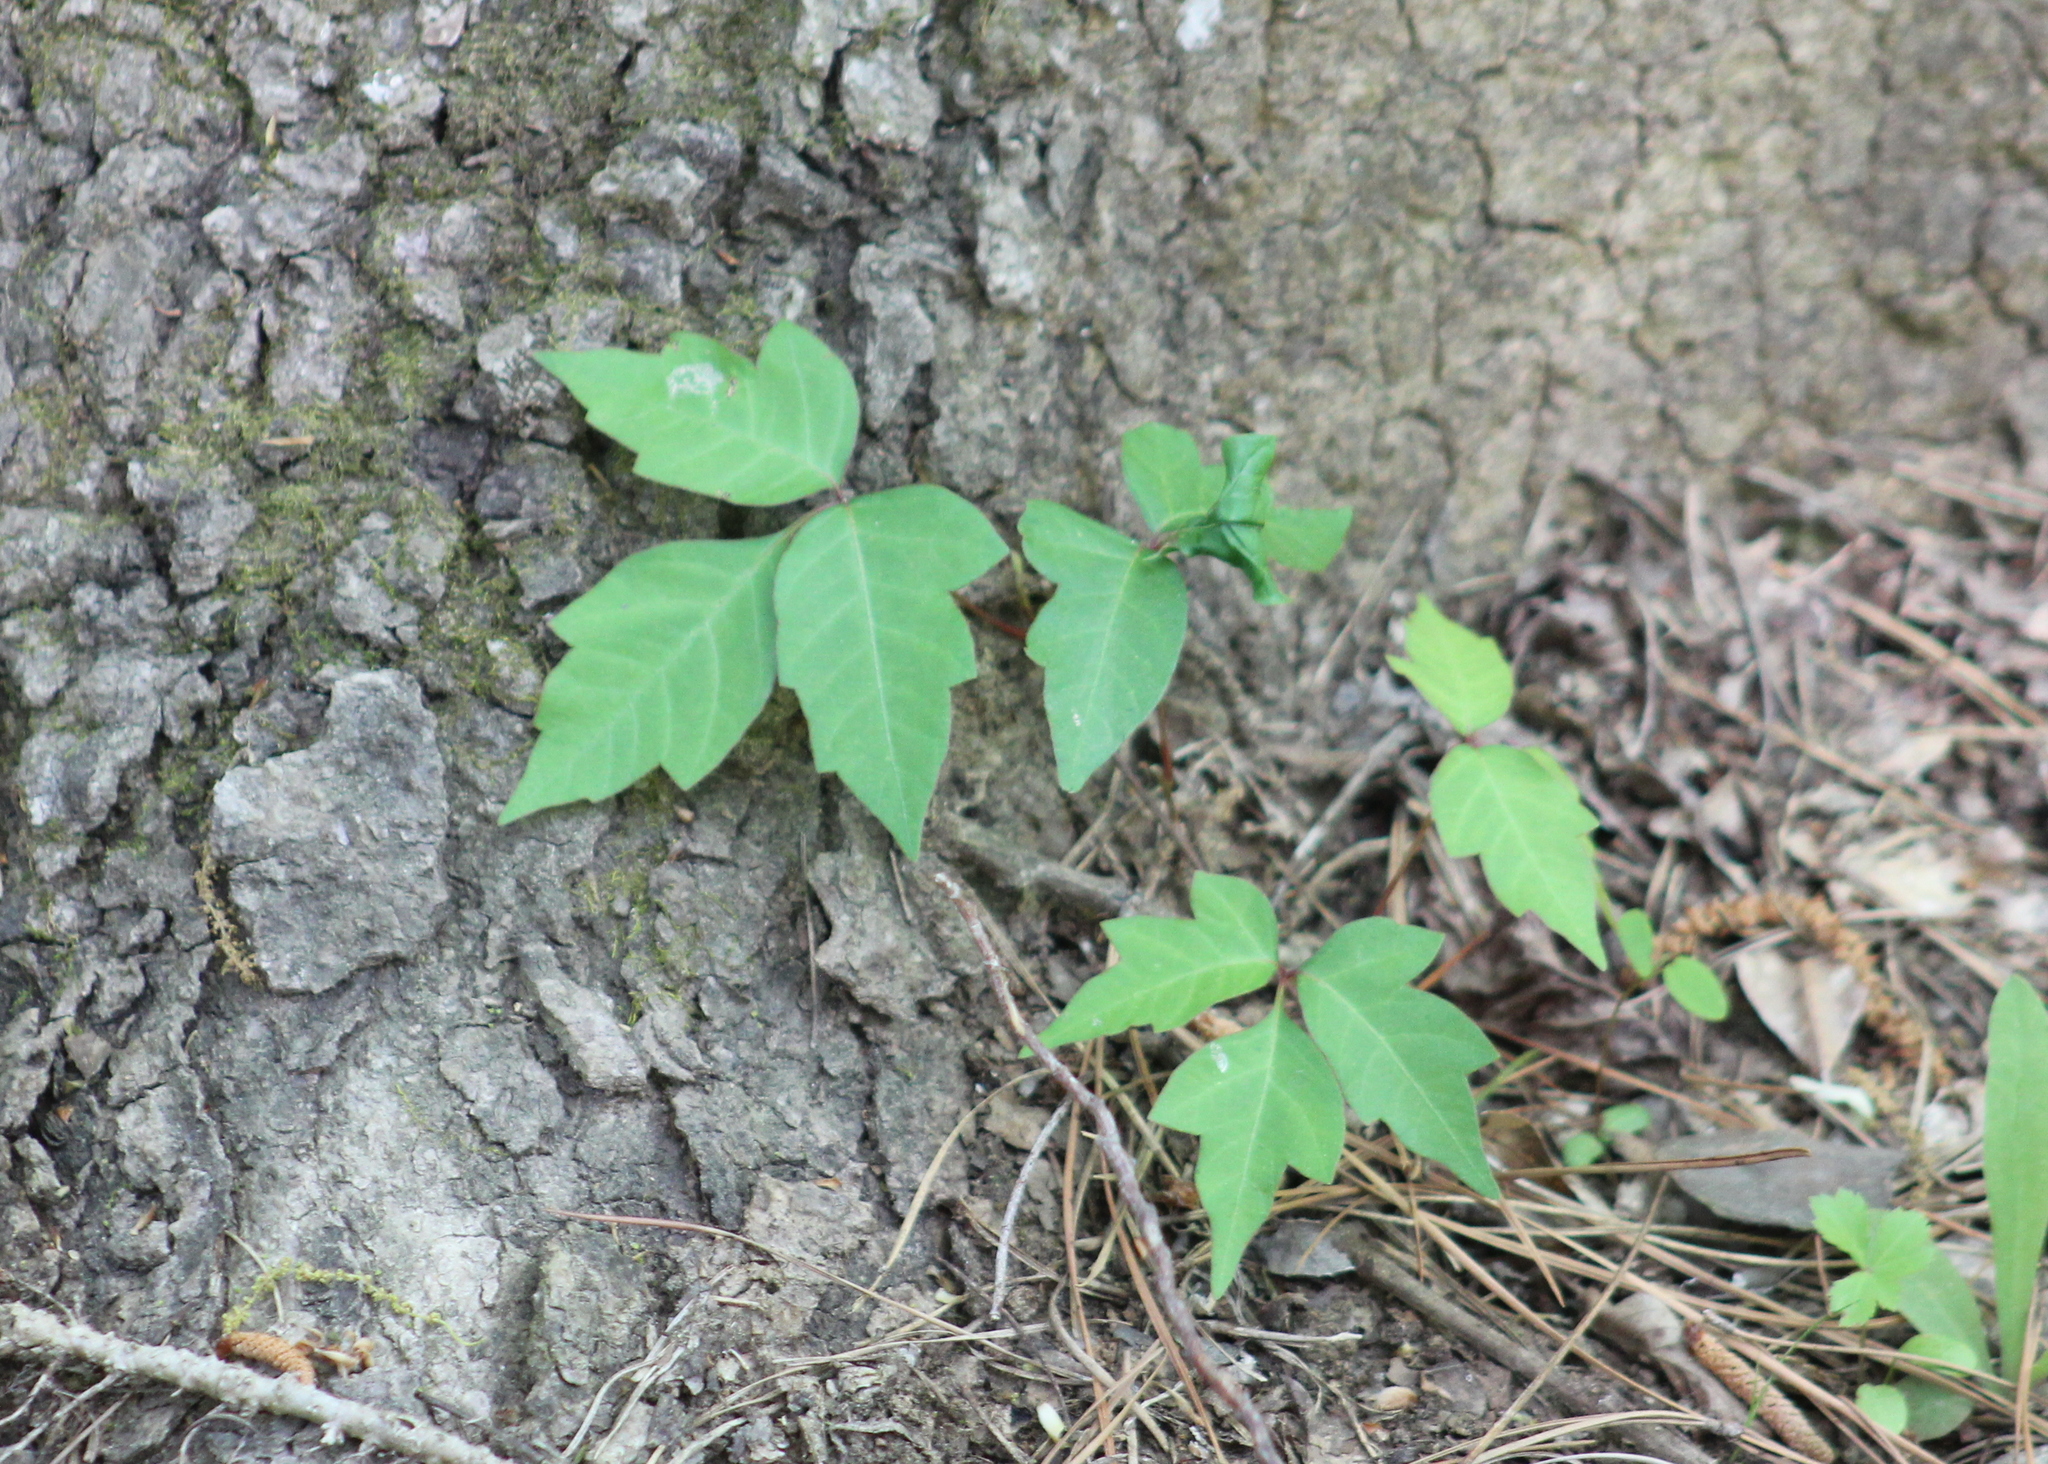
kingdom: Plantae
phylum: Tracheophyta
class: Magnoliopsida
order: Sapindales
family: Anacardiaceae
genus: Toxicodendron
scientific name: Toxicodendron radicans
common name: Poison ivy
